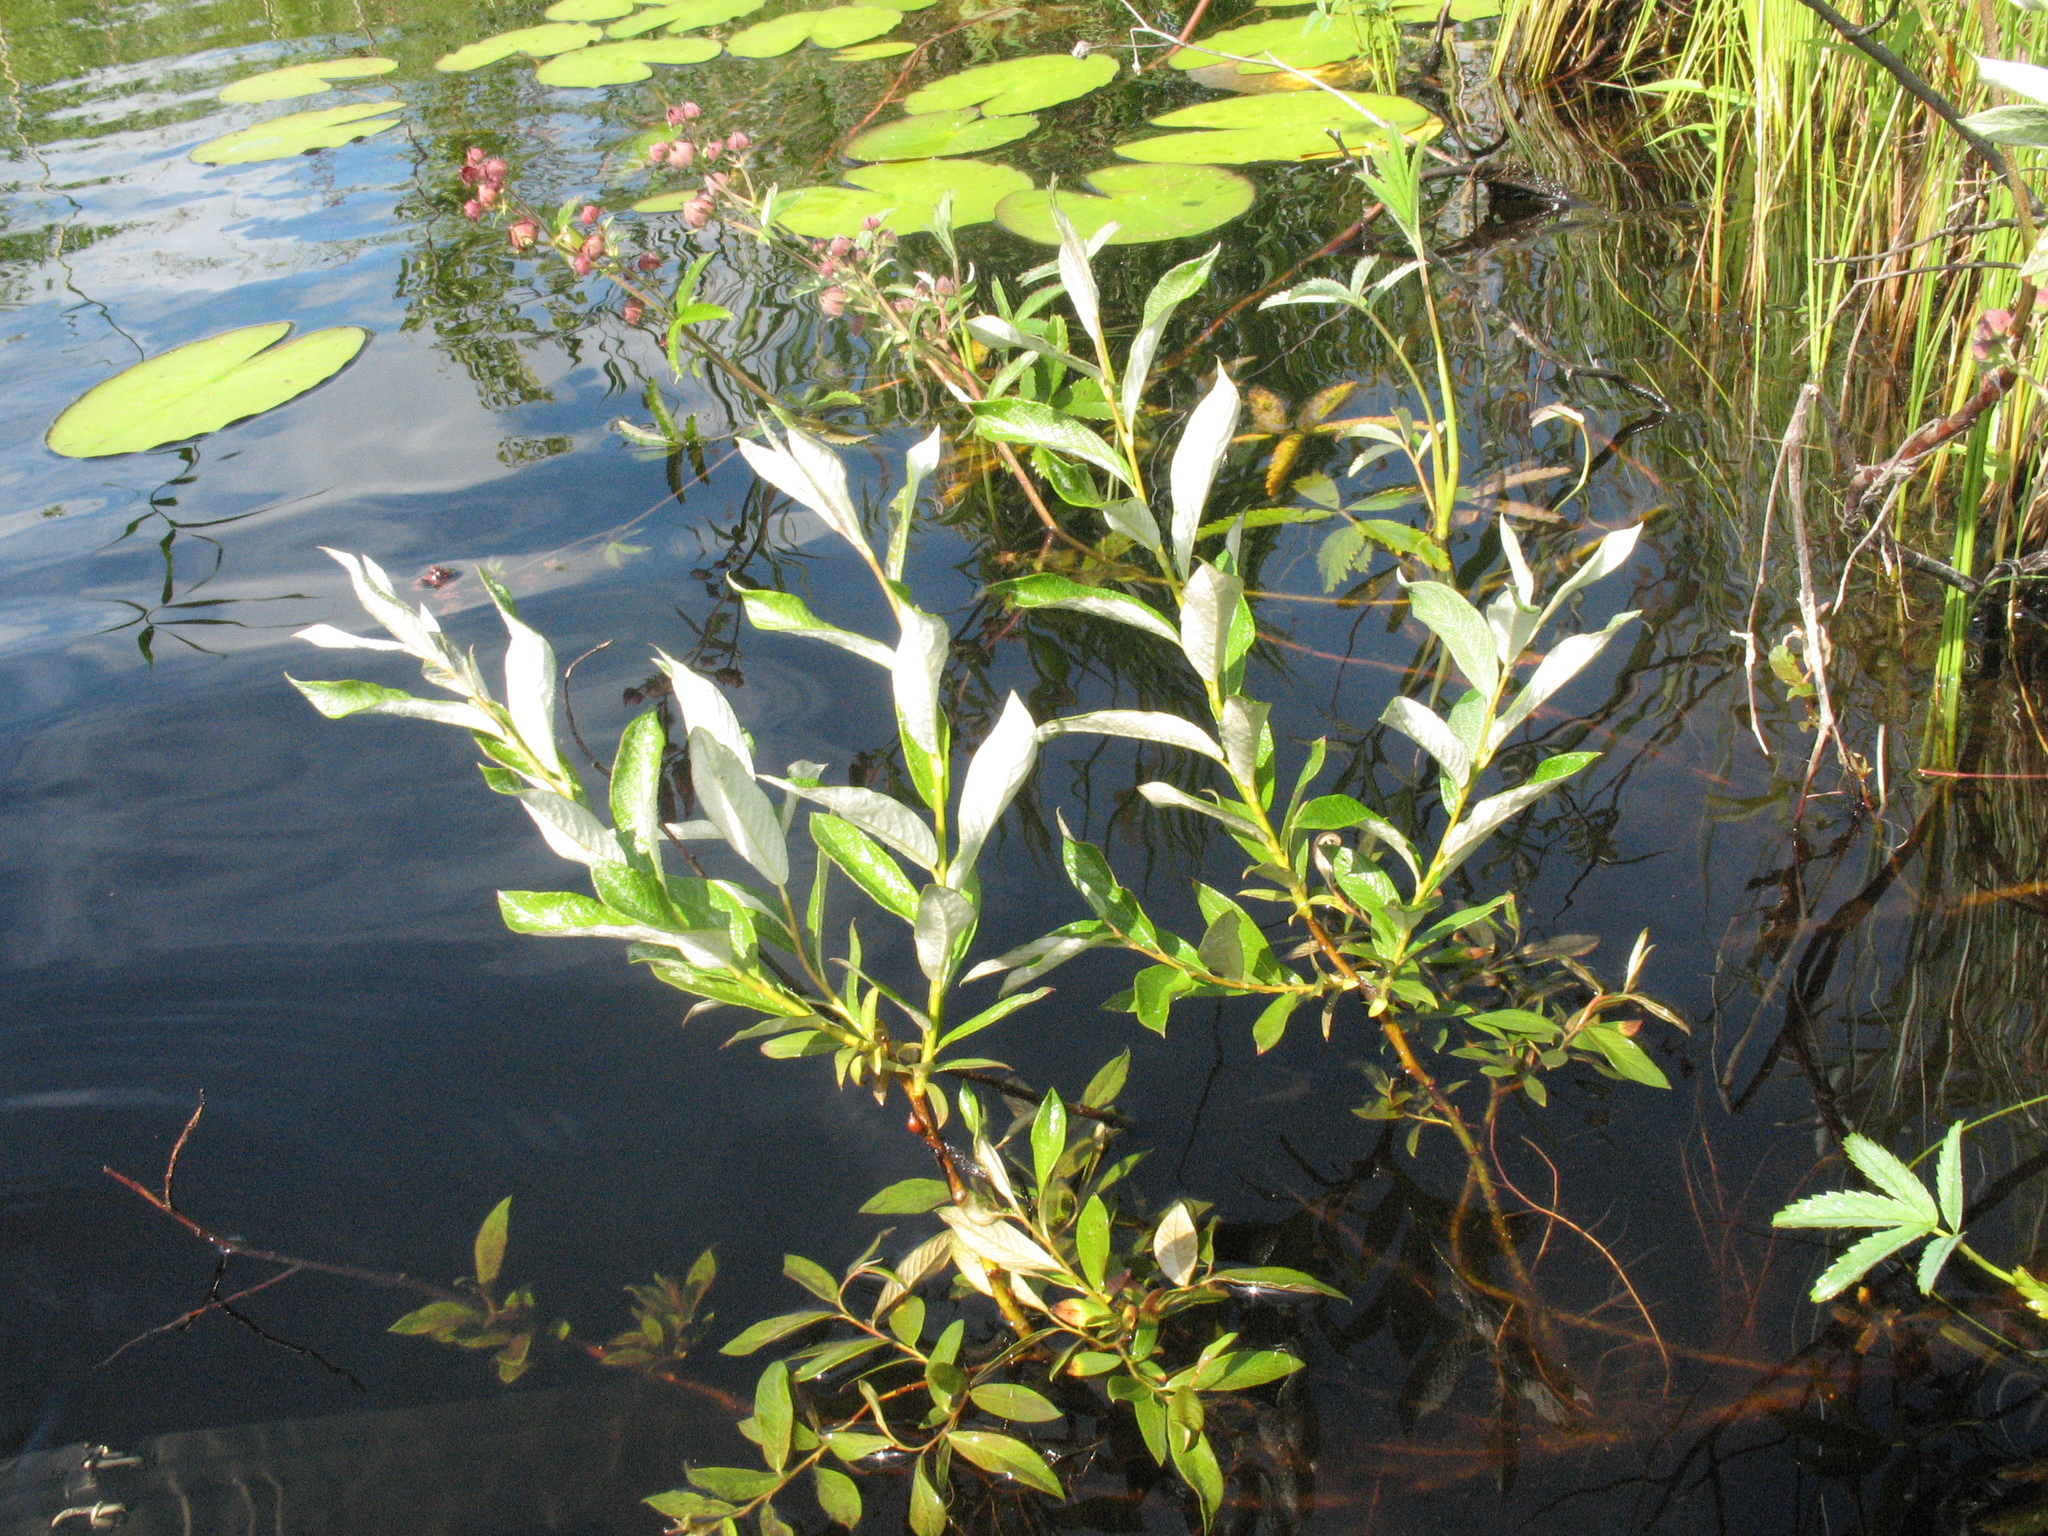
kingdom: Plantae
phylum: Tracheophyta
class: Magnoliopsida
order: Malpighiales
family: Salicaceae
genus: Salix
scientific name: Salix lapponum
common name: Downy willow
